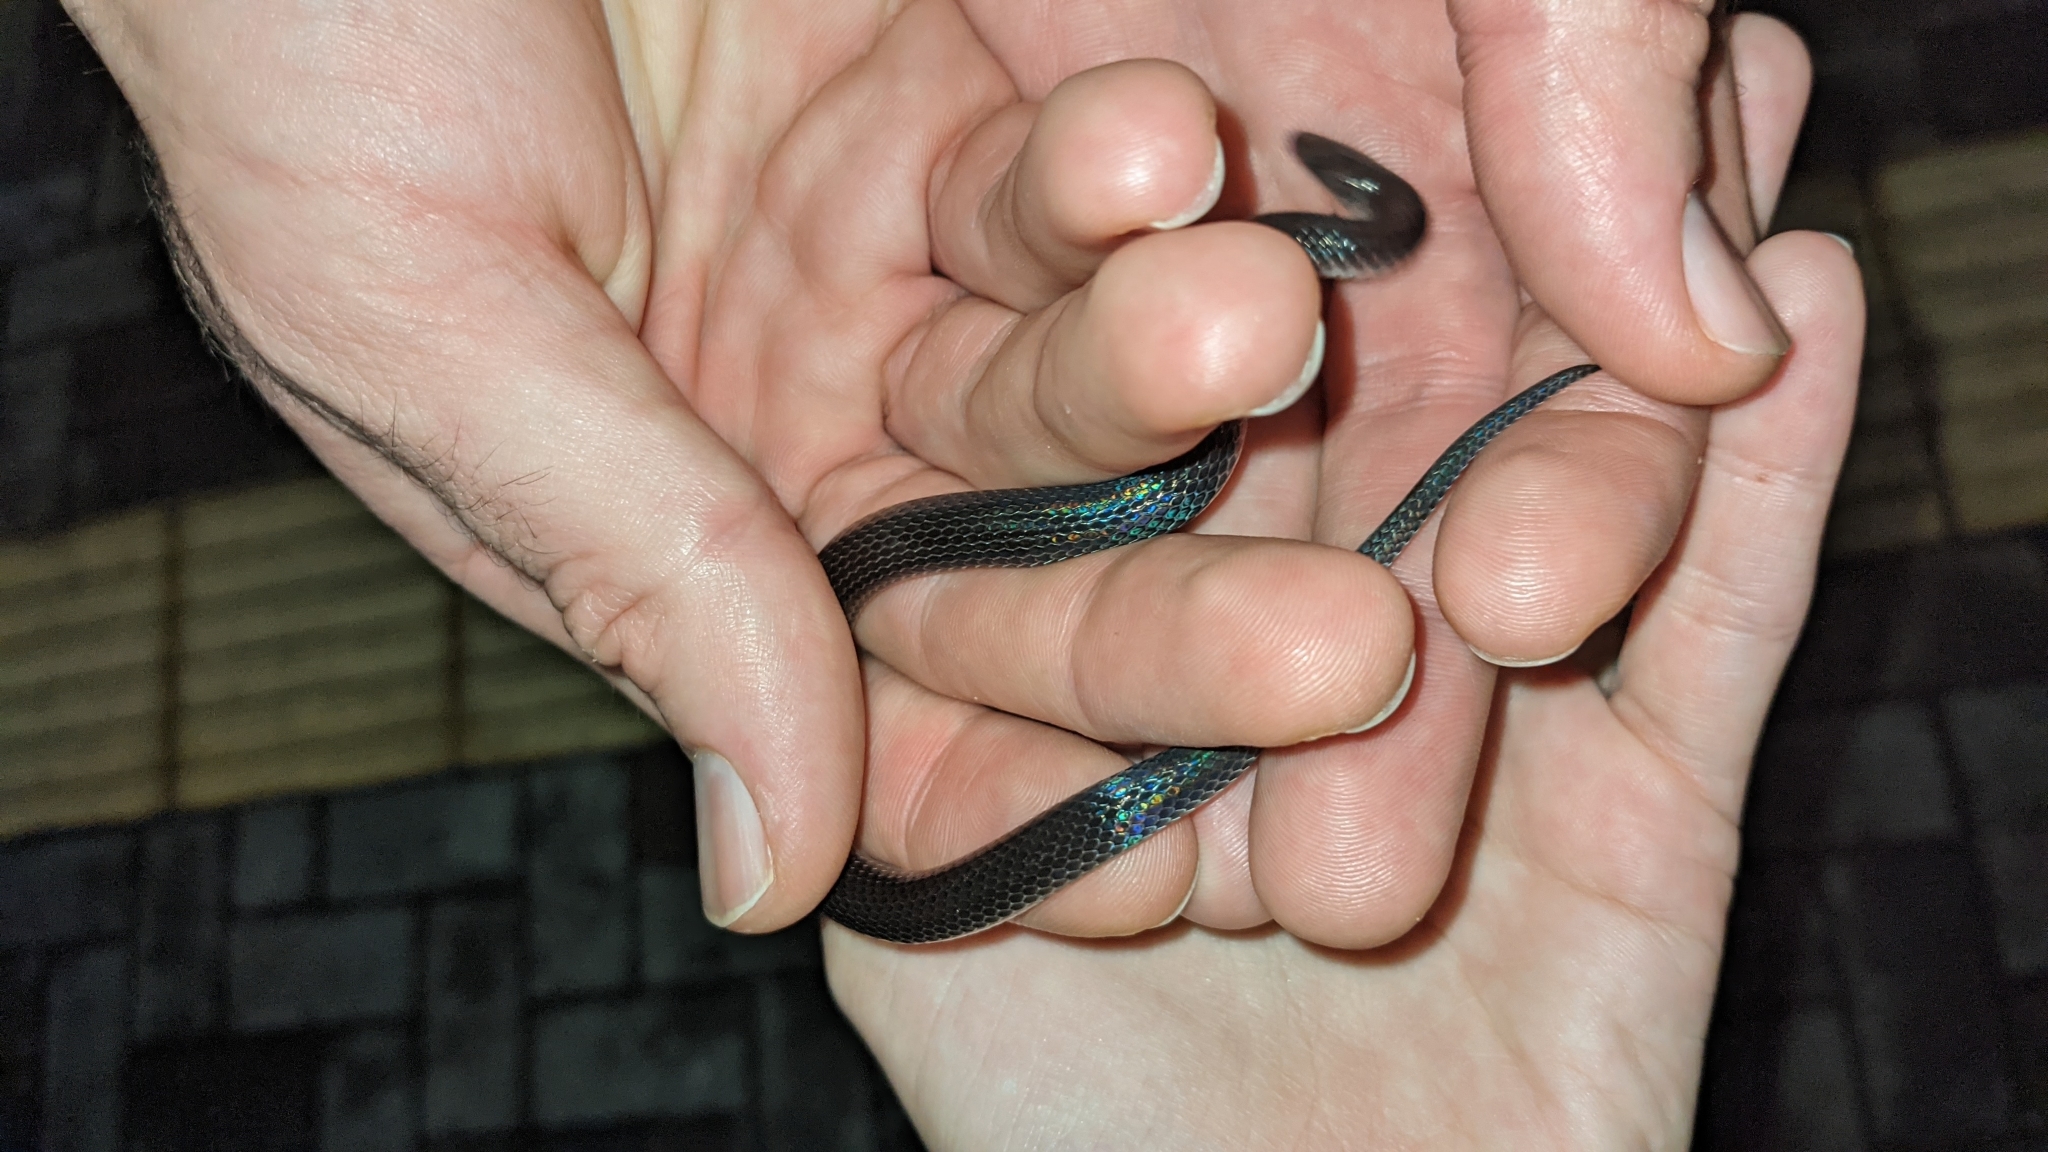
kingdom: Animalia
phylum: Chordata
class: Squamata
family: Colubridae
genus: Geophis
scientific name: Geophis hoffmanni
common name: Hoffmann's earth snake
